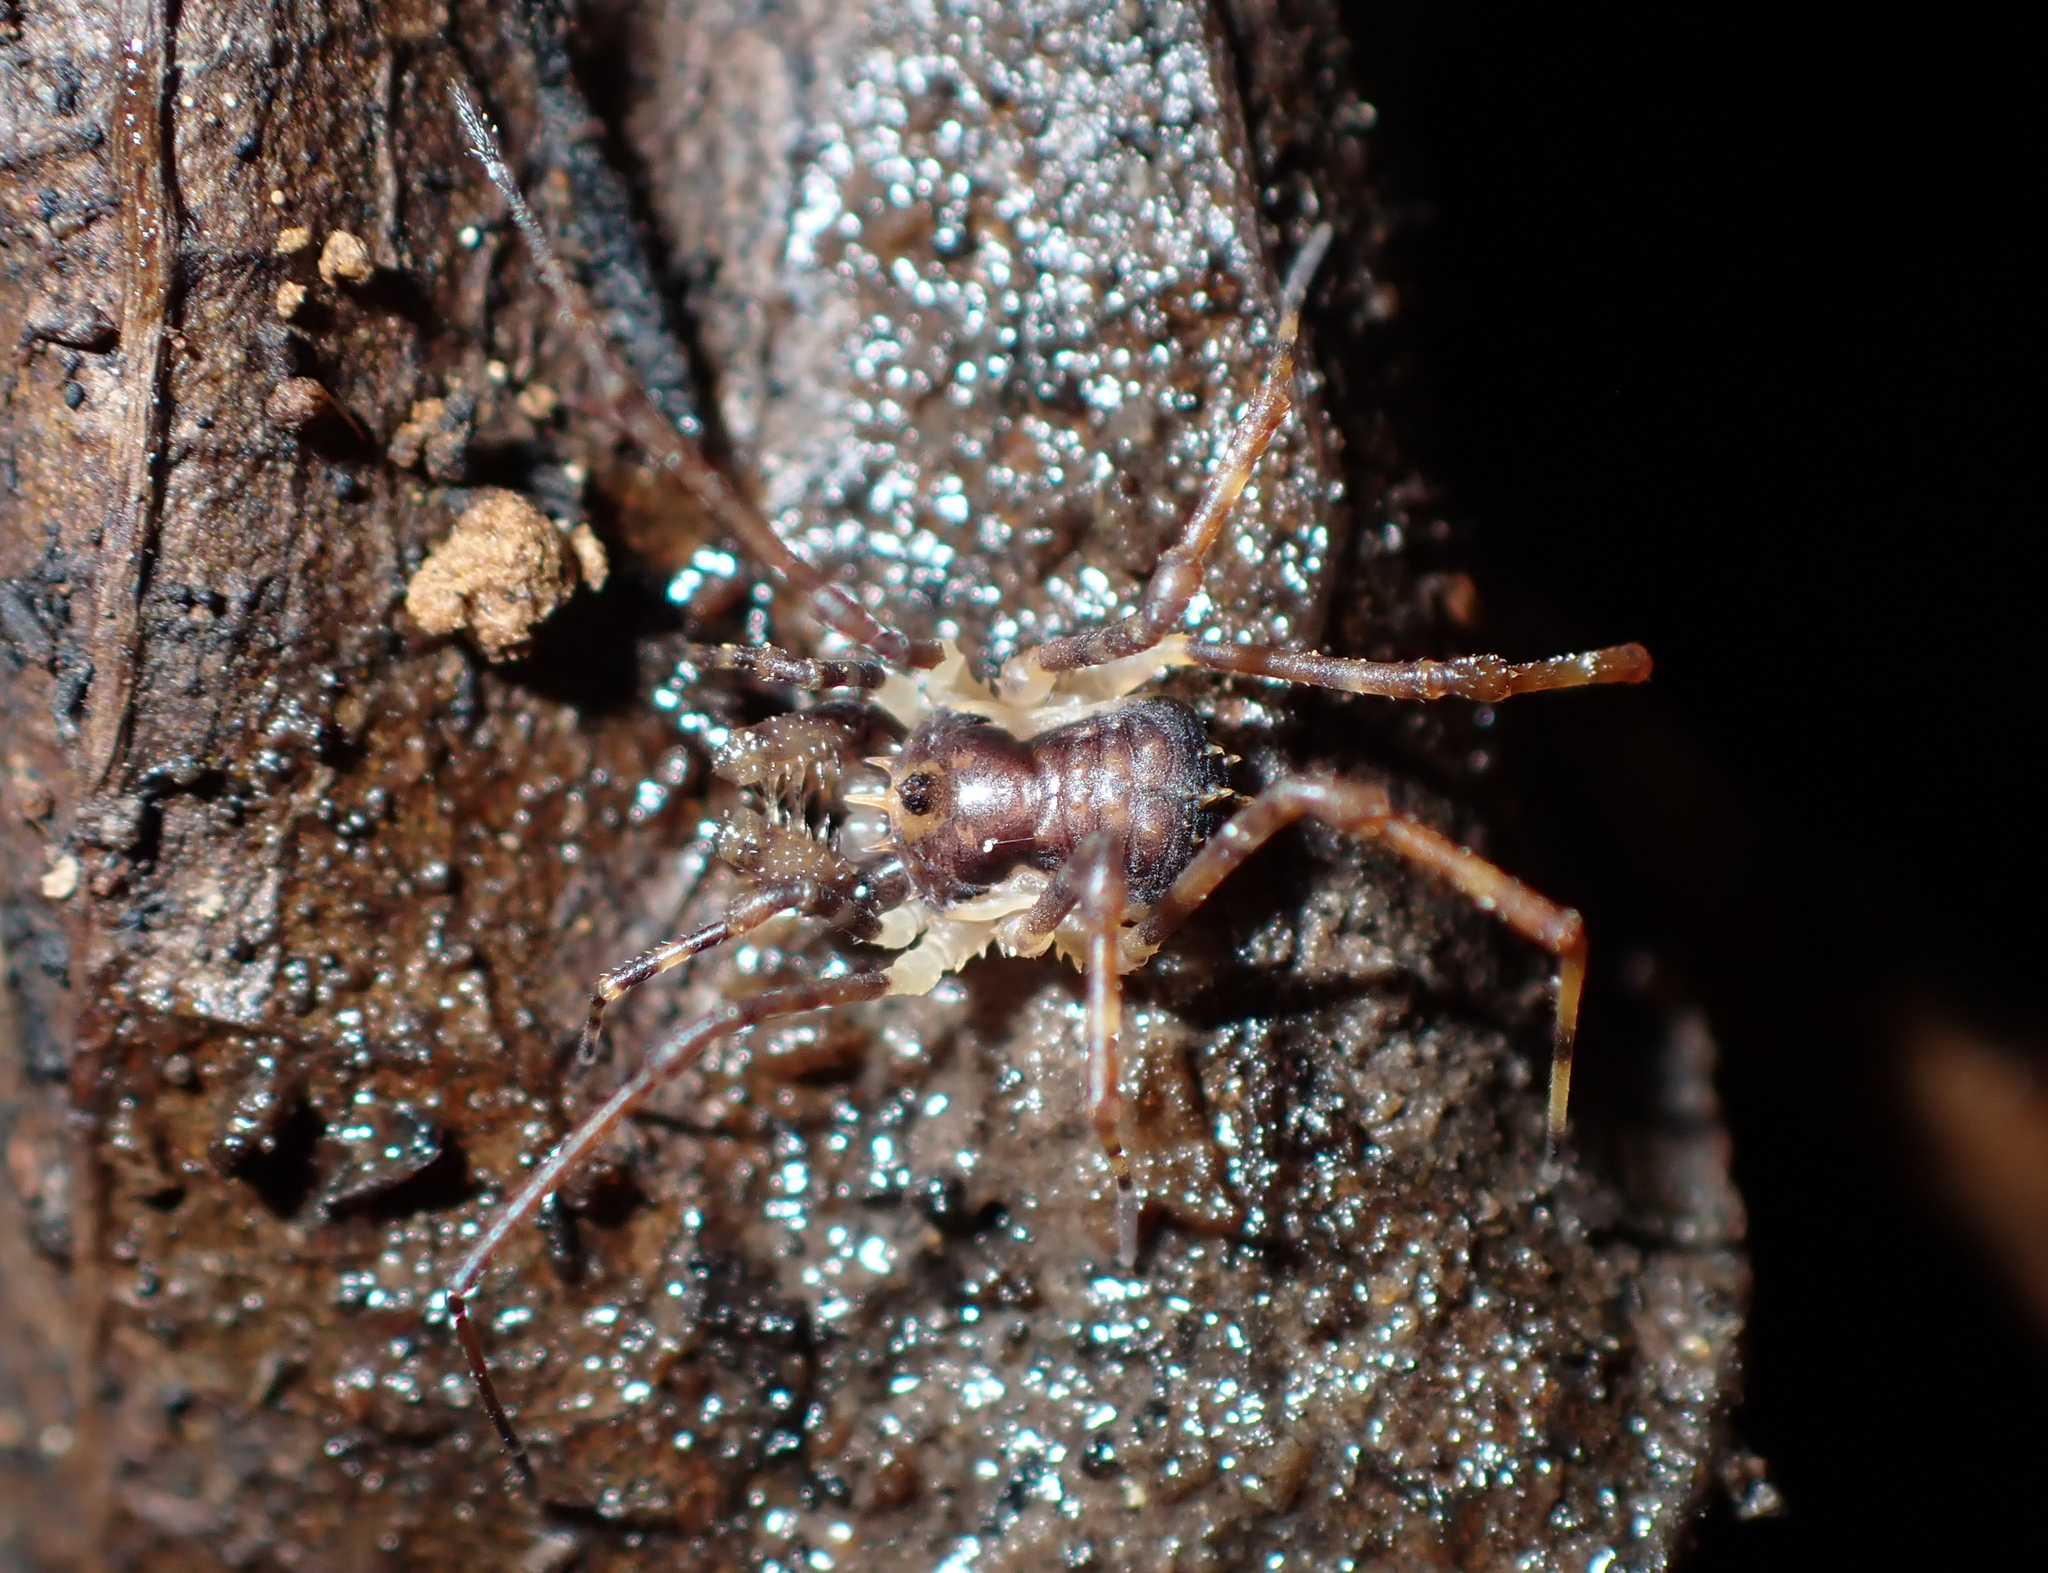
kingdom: Animalia
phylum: Arthropoda
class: Arachnida
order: Opiliones
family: Triaenonychidae
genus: Algidia
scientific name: Algidia chiltoni
